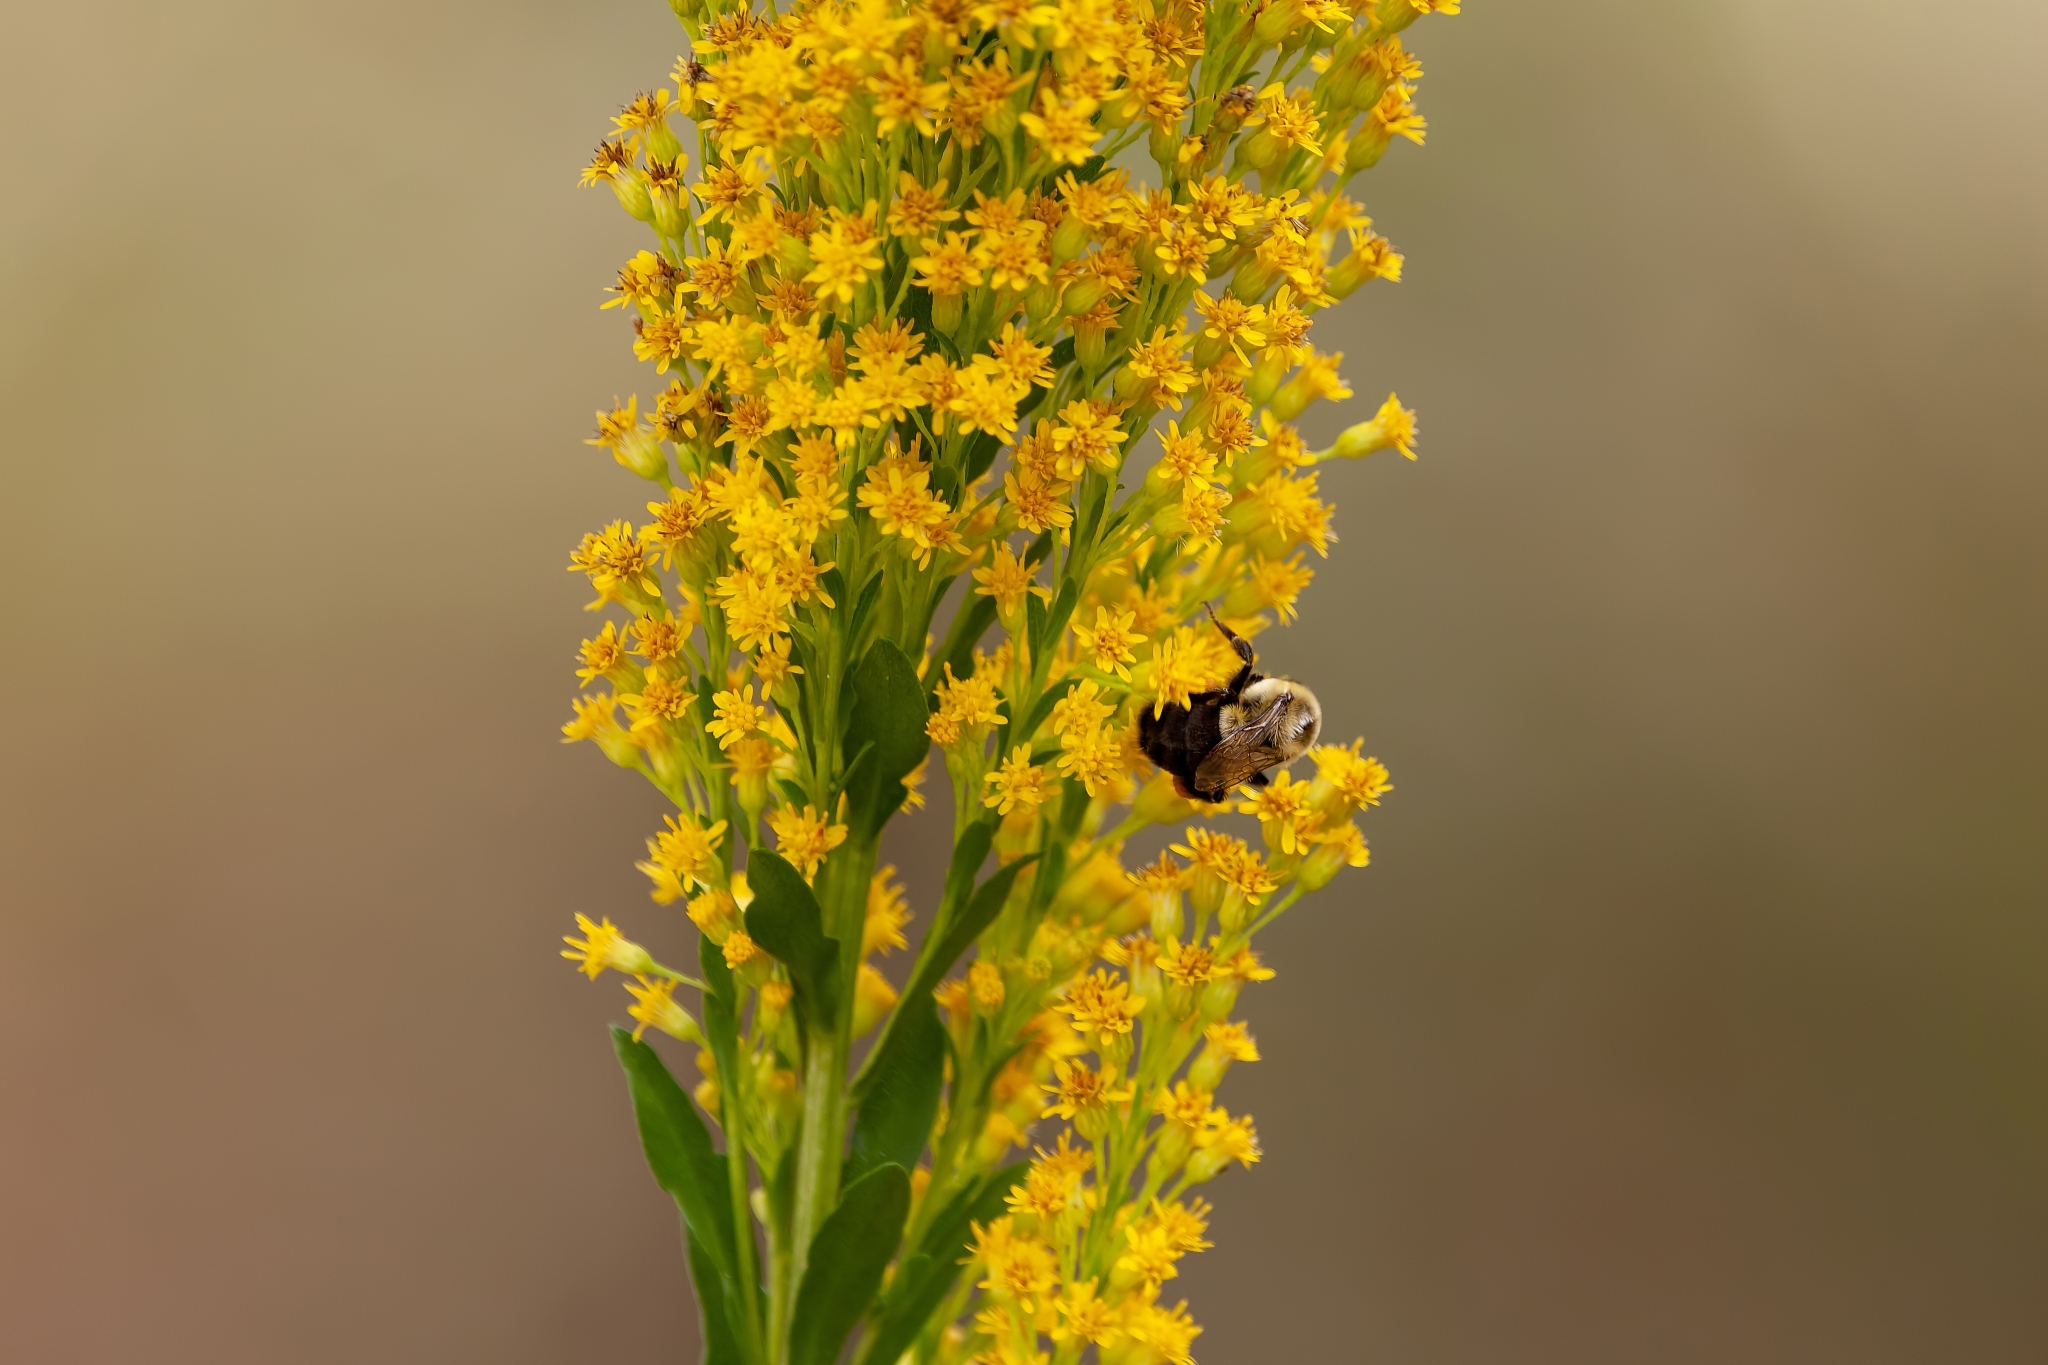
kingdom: Plantae
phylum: Tracheophyta
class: Magnoliopsida
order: Asterales
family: Asteraceae
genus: Solidago
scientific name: Solidago mexicana
